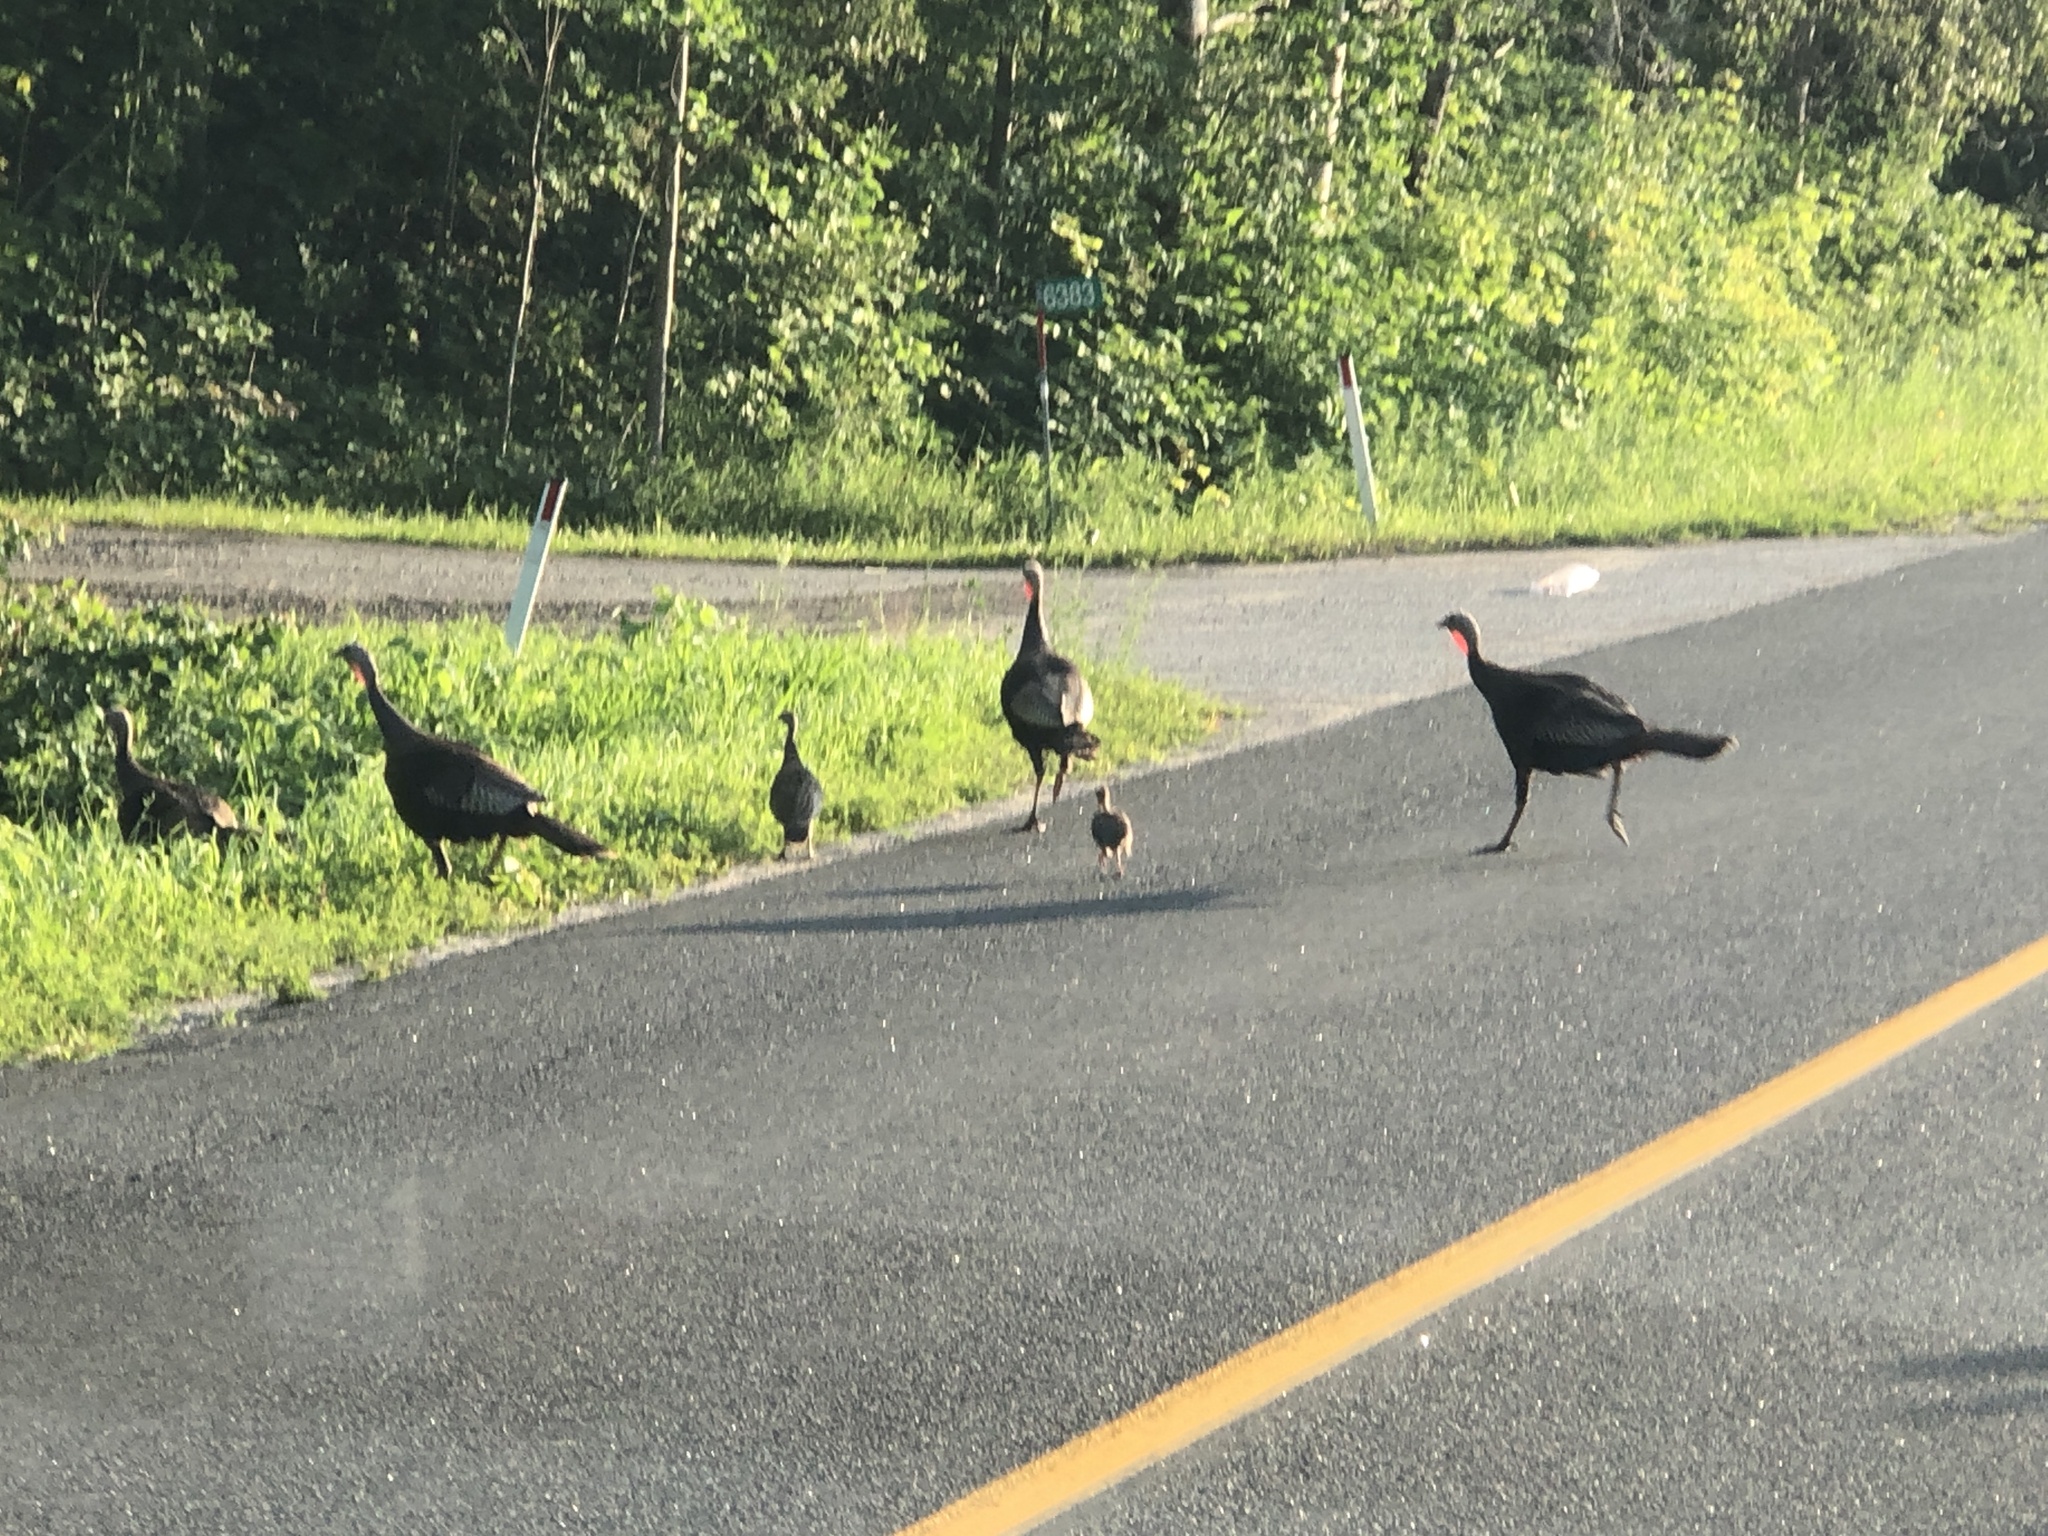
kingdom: Animalia
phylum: Chordata
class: Aves
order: Galliformes
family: Phasianidae
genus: Meleagris
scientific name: Meleagris gallopavo
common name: Wild turkey
